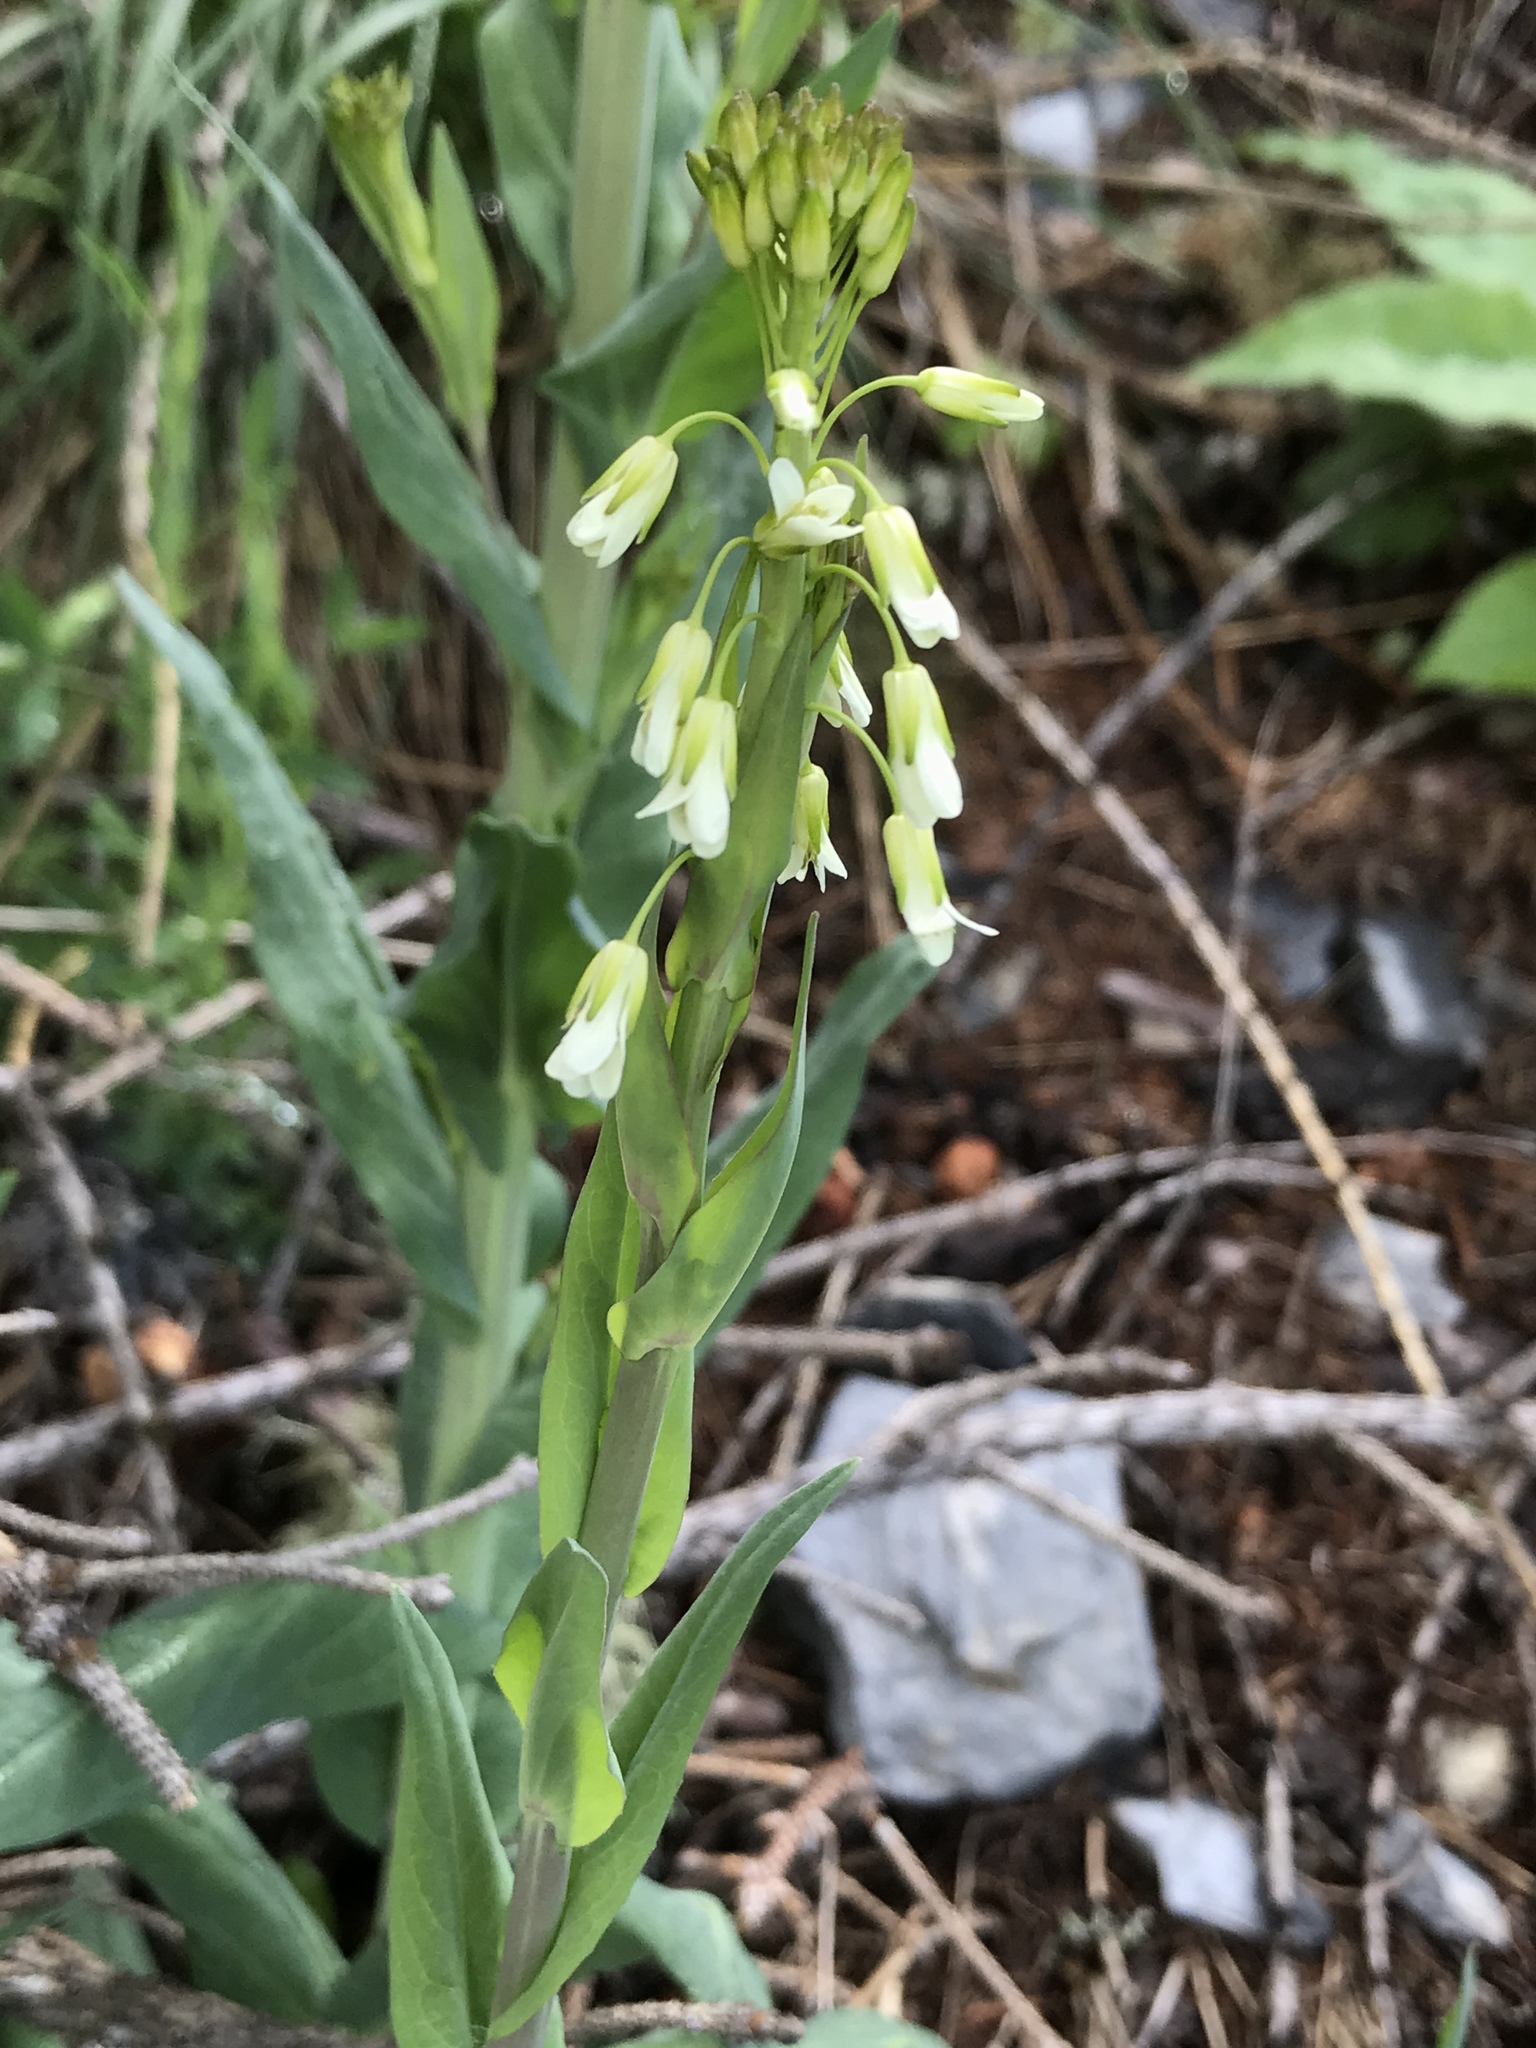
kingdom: Plantae
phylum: Tracheophyta
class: Magnoliopsida
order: Brassicales
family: Brassicaceae
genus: Turritis
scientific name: Turritis glabra
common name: Tower rockcress
